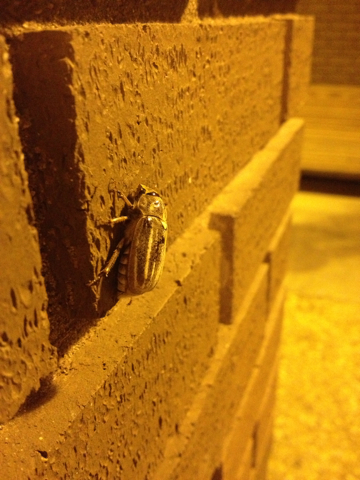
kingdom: Animalia
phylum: Arthropoda
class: Insecta
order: Coleoptera
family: Scarabaeidae
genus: Polyphylla
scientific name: Polyphylla occidentalis
